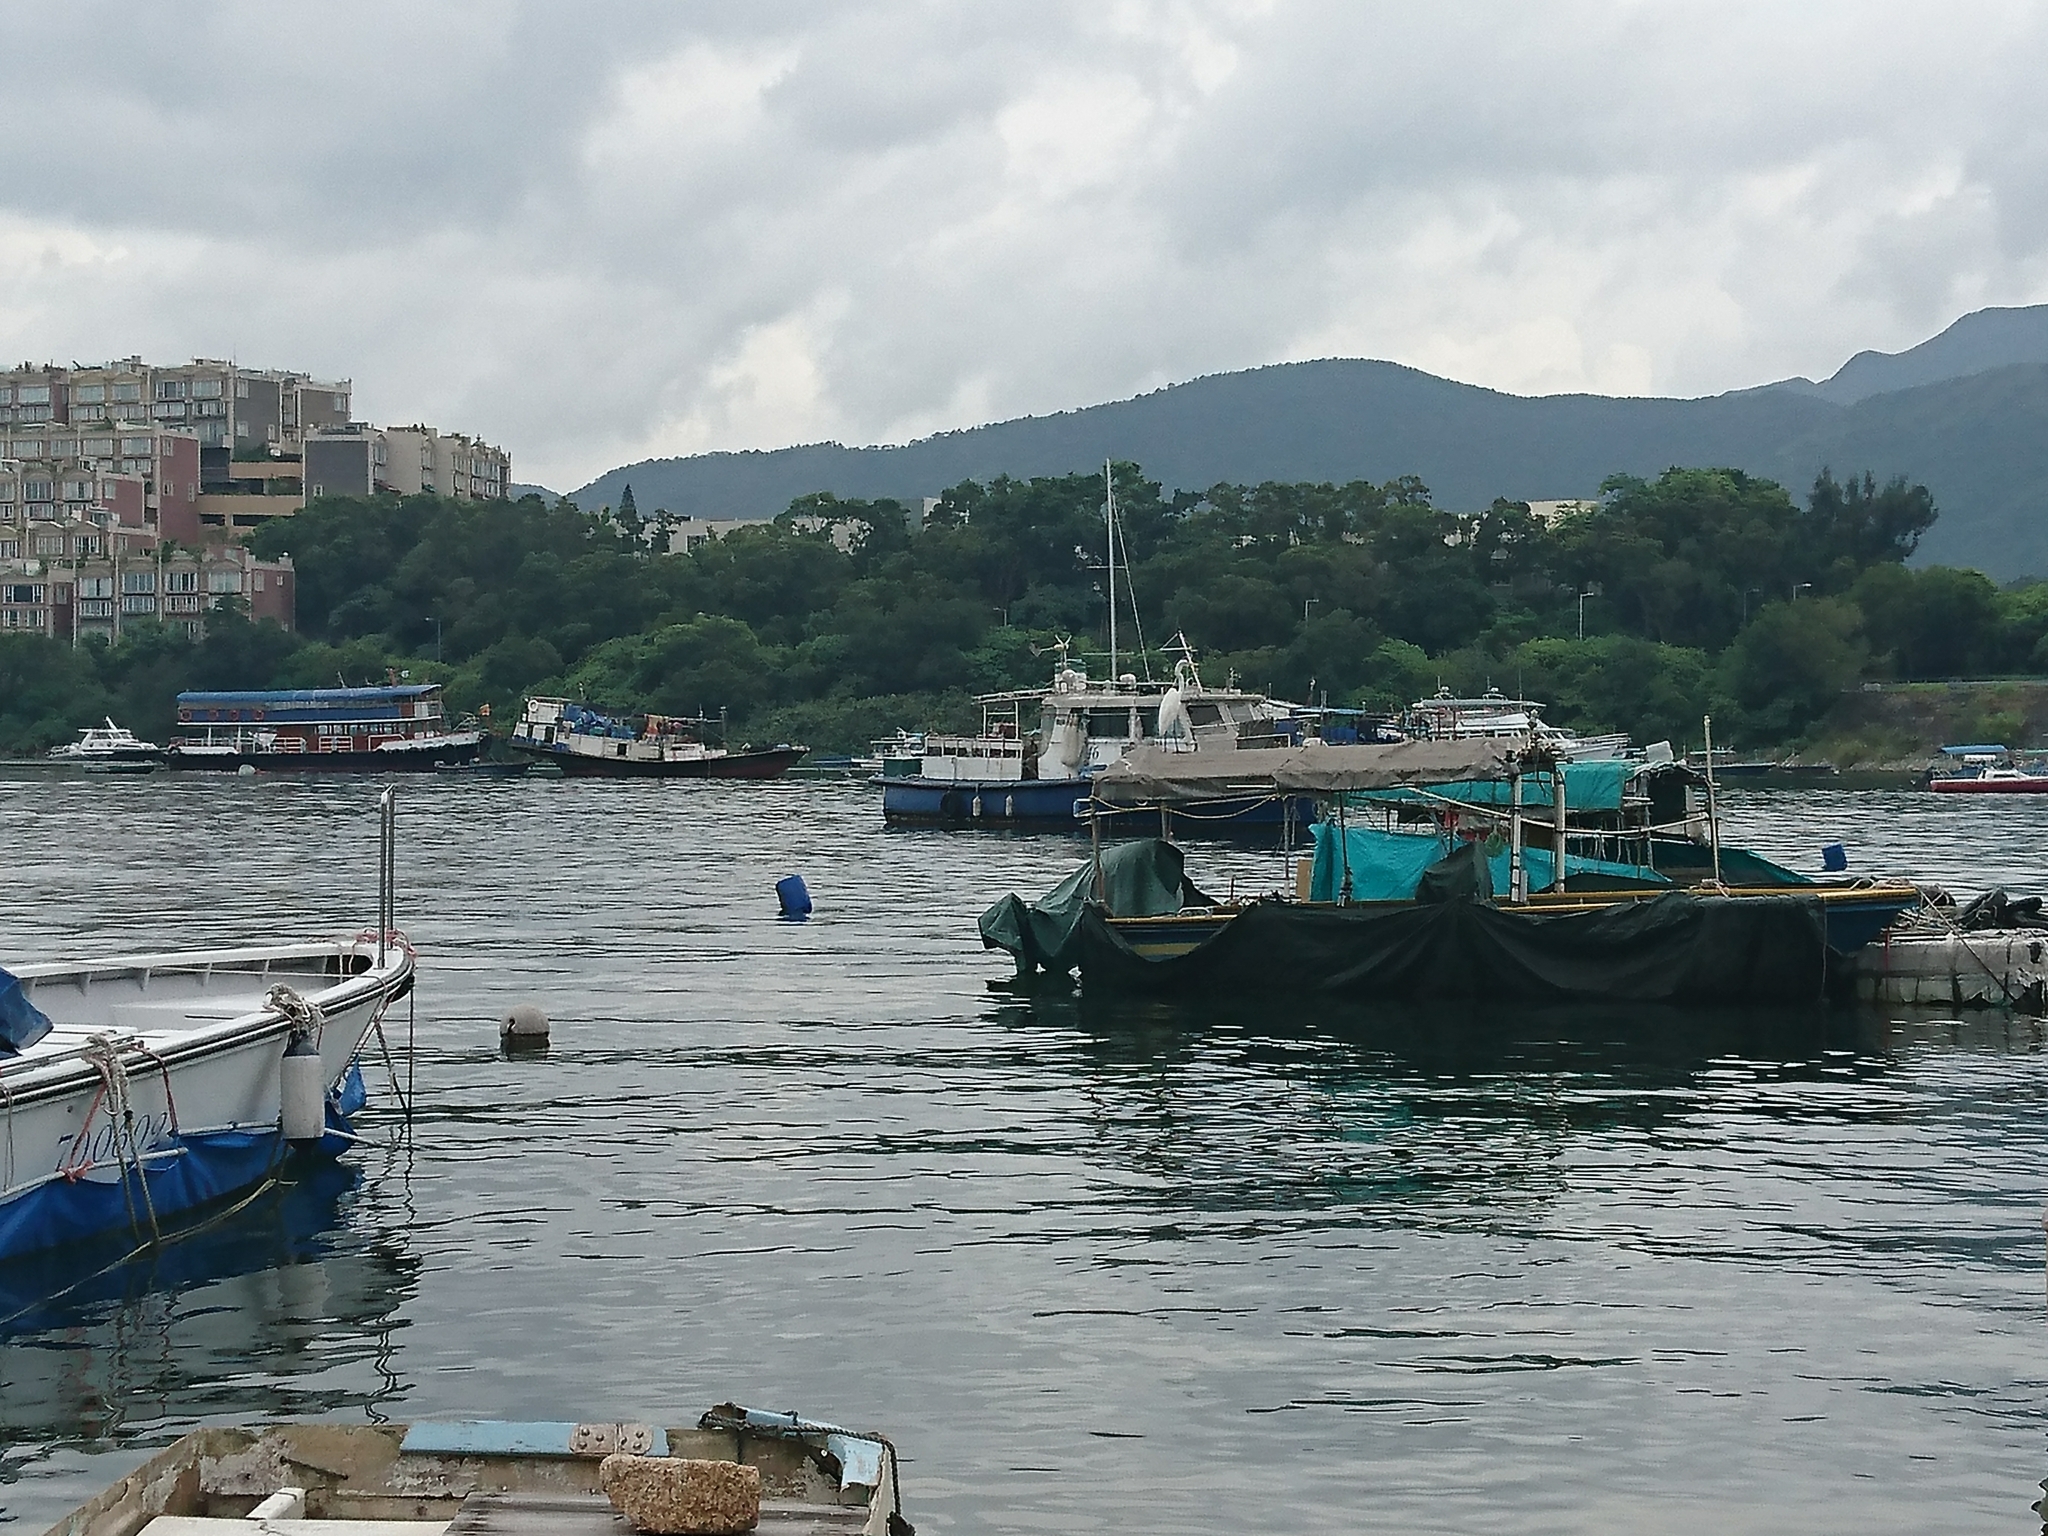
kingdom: Animalia
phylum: Chordata
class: Aves
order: Pelecaniformes
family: Ardeidae
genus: Ardea
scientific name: Ardea alba
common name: Great egret
